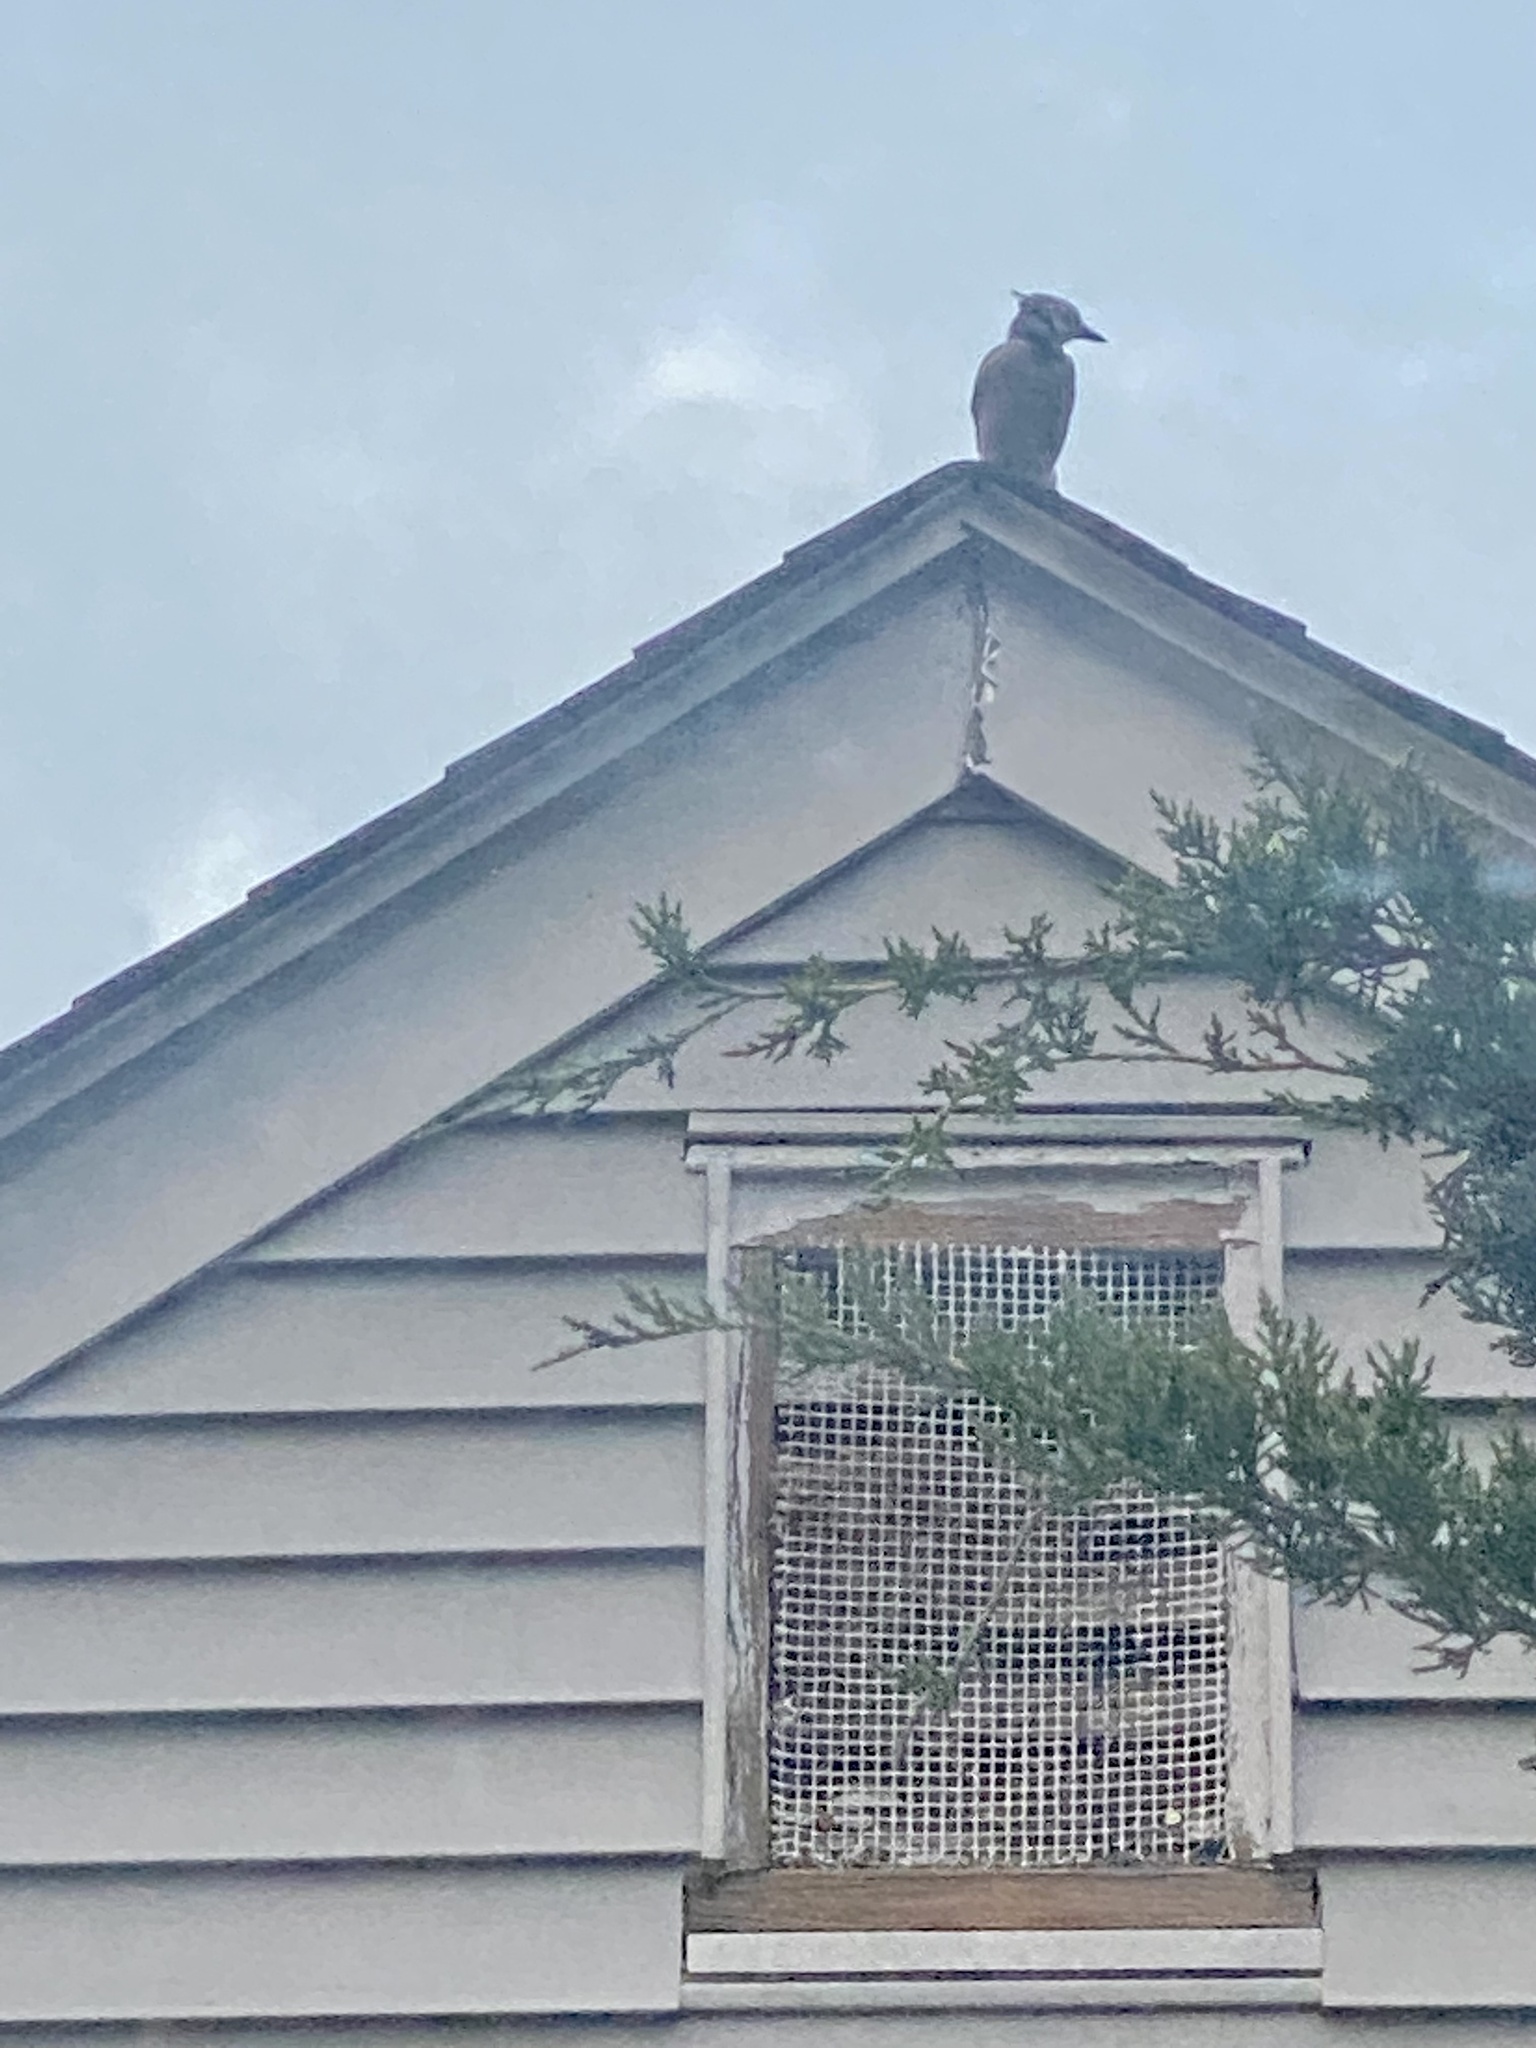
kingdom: Animalia
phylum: Chordata
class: Aves
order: Passeriformes
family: Corvidae
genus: Cyanocitta
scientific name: Cyanocitta cristata
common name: Blue jay
